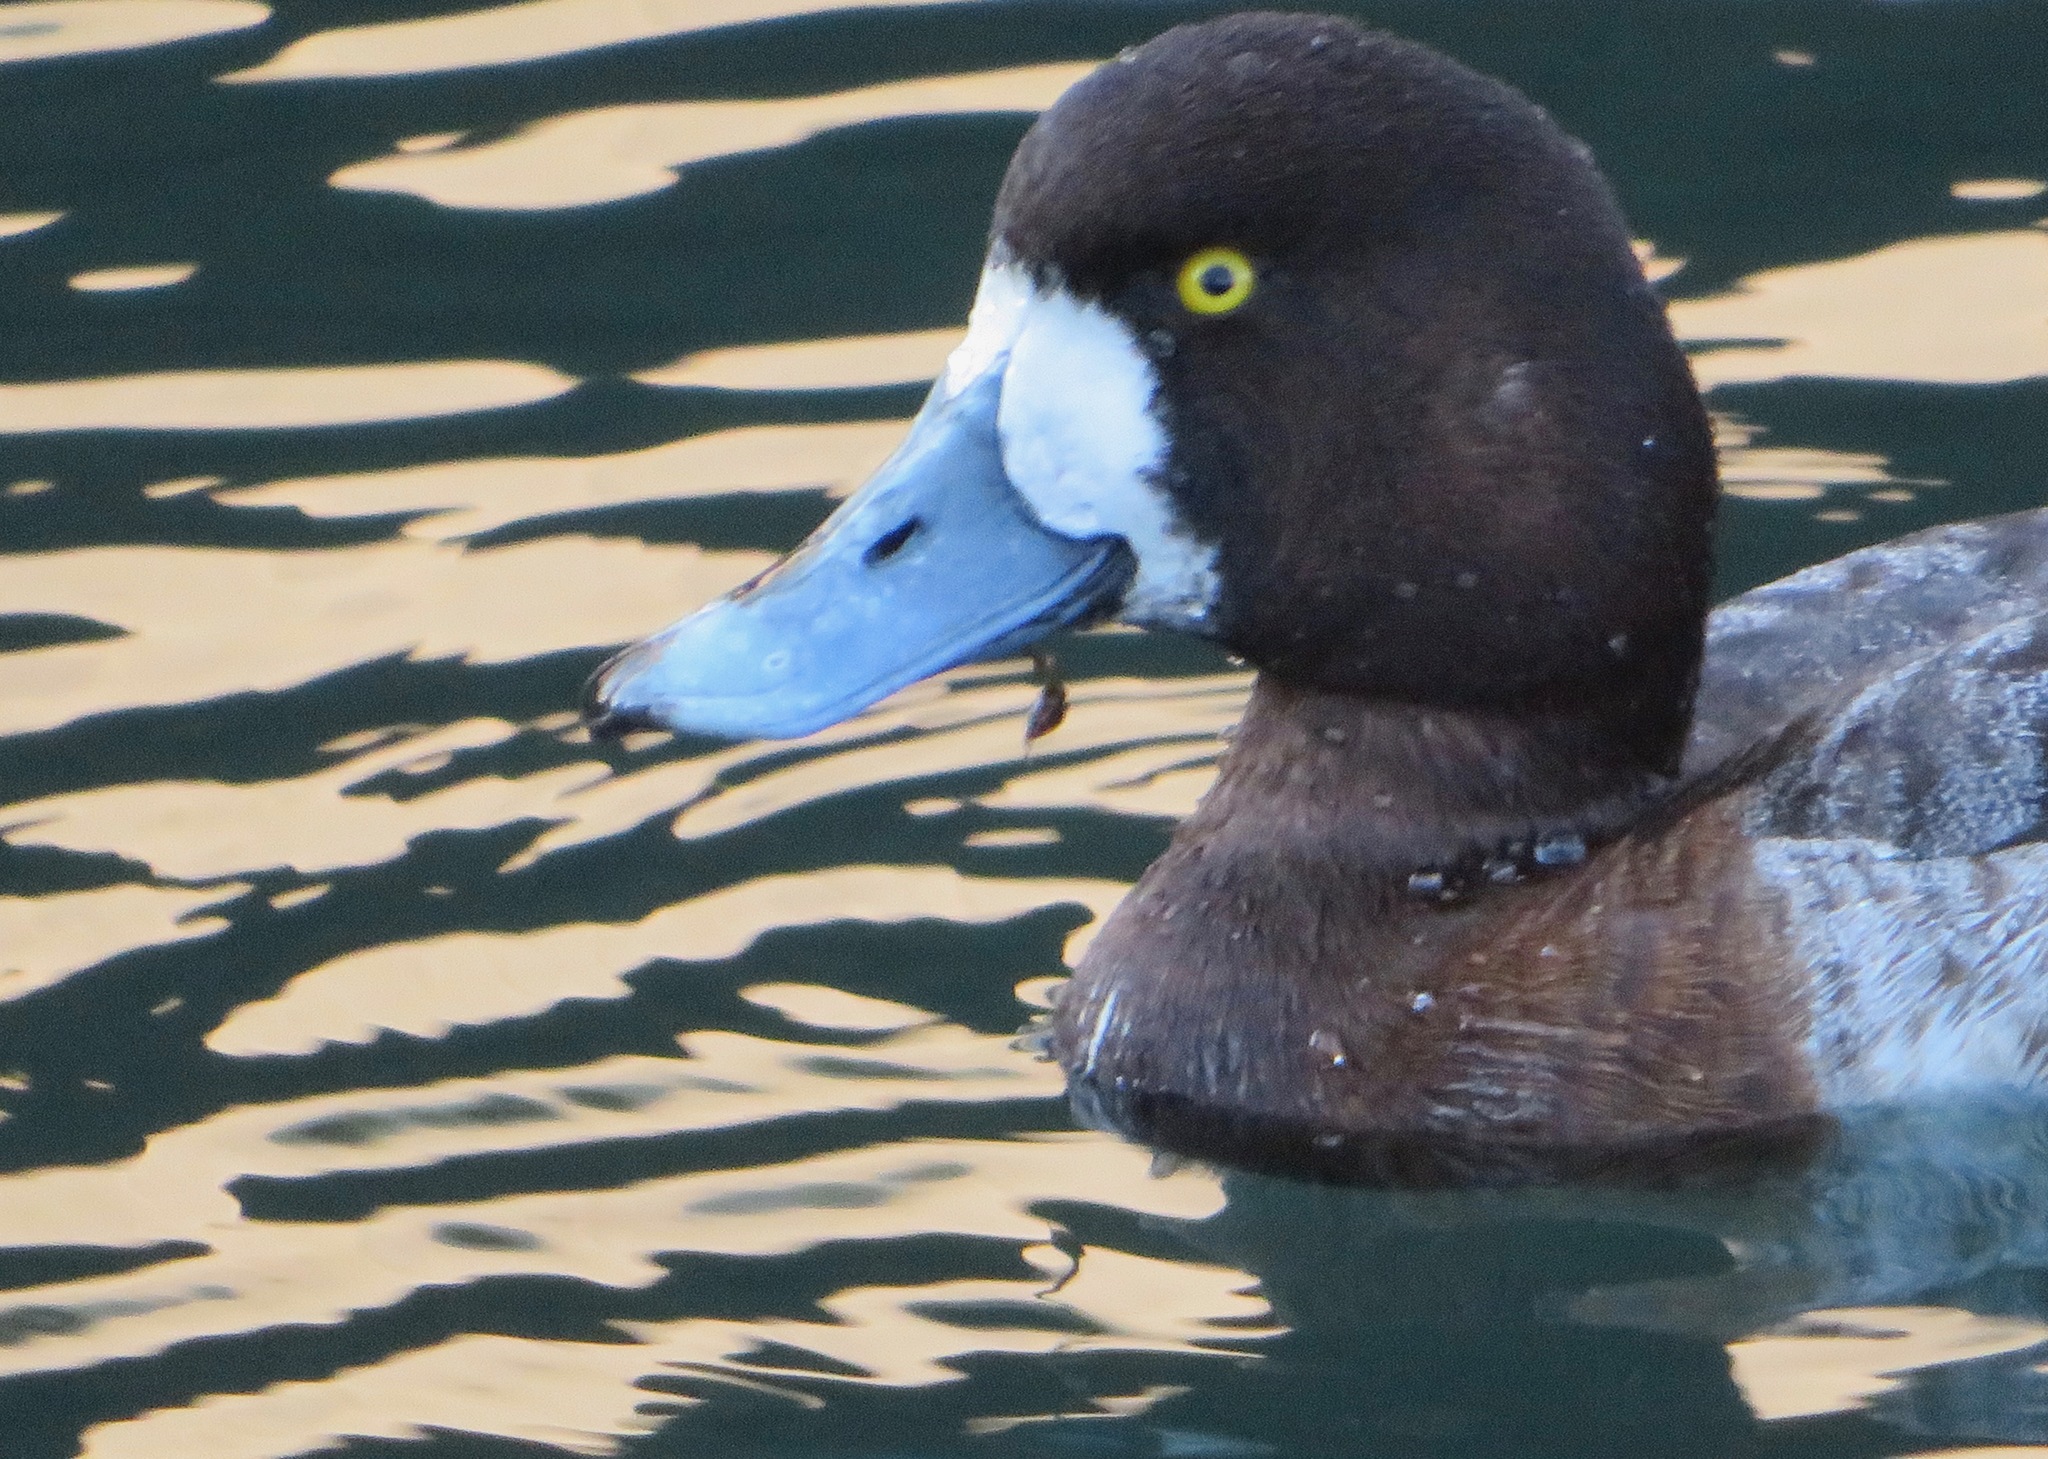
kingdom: Animalia
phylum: Chordata
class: Aves
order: Anseriformes
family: Anatidae
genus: Aythya
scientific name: Aythya marila
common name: Greater scaup
